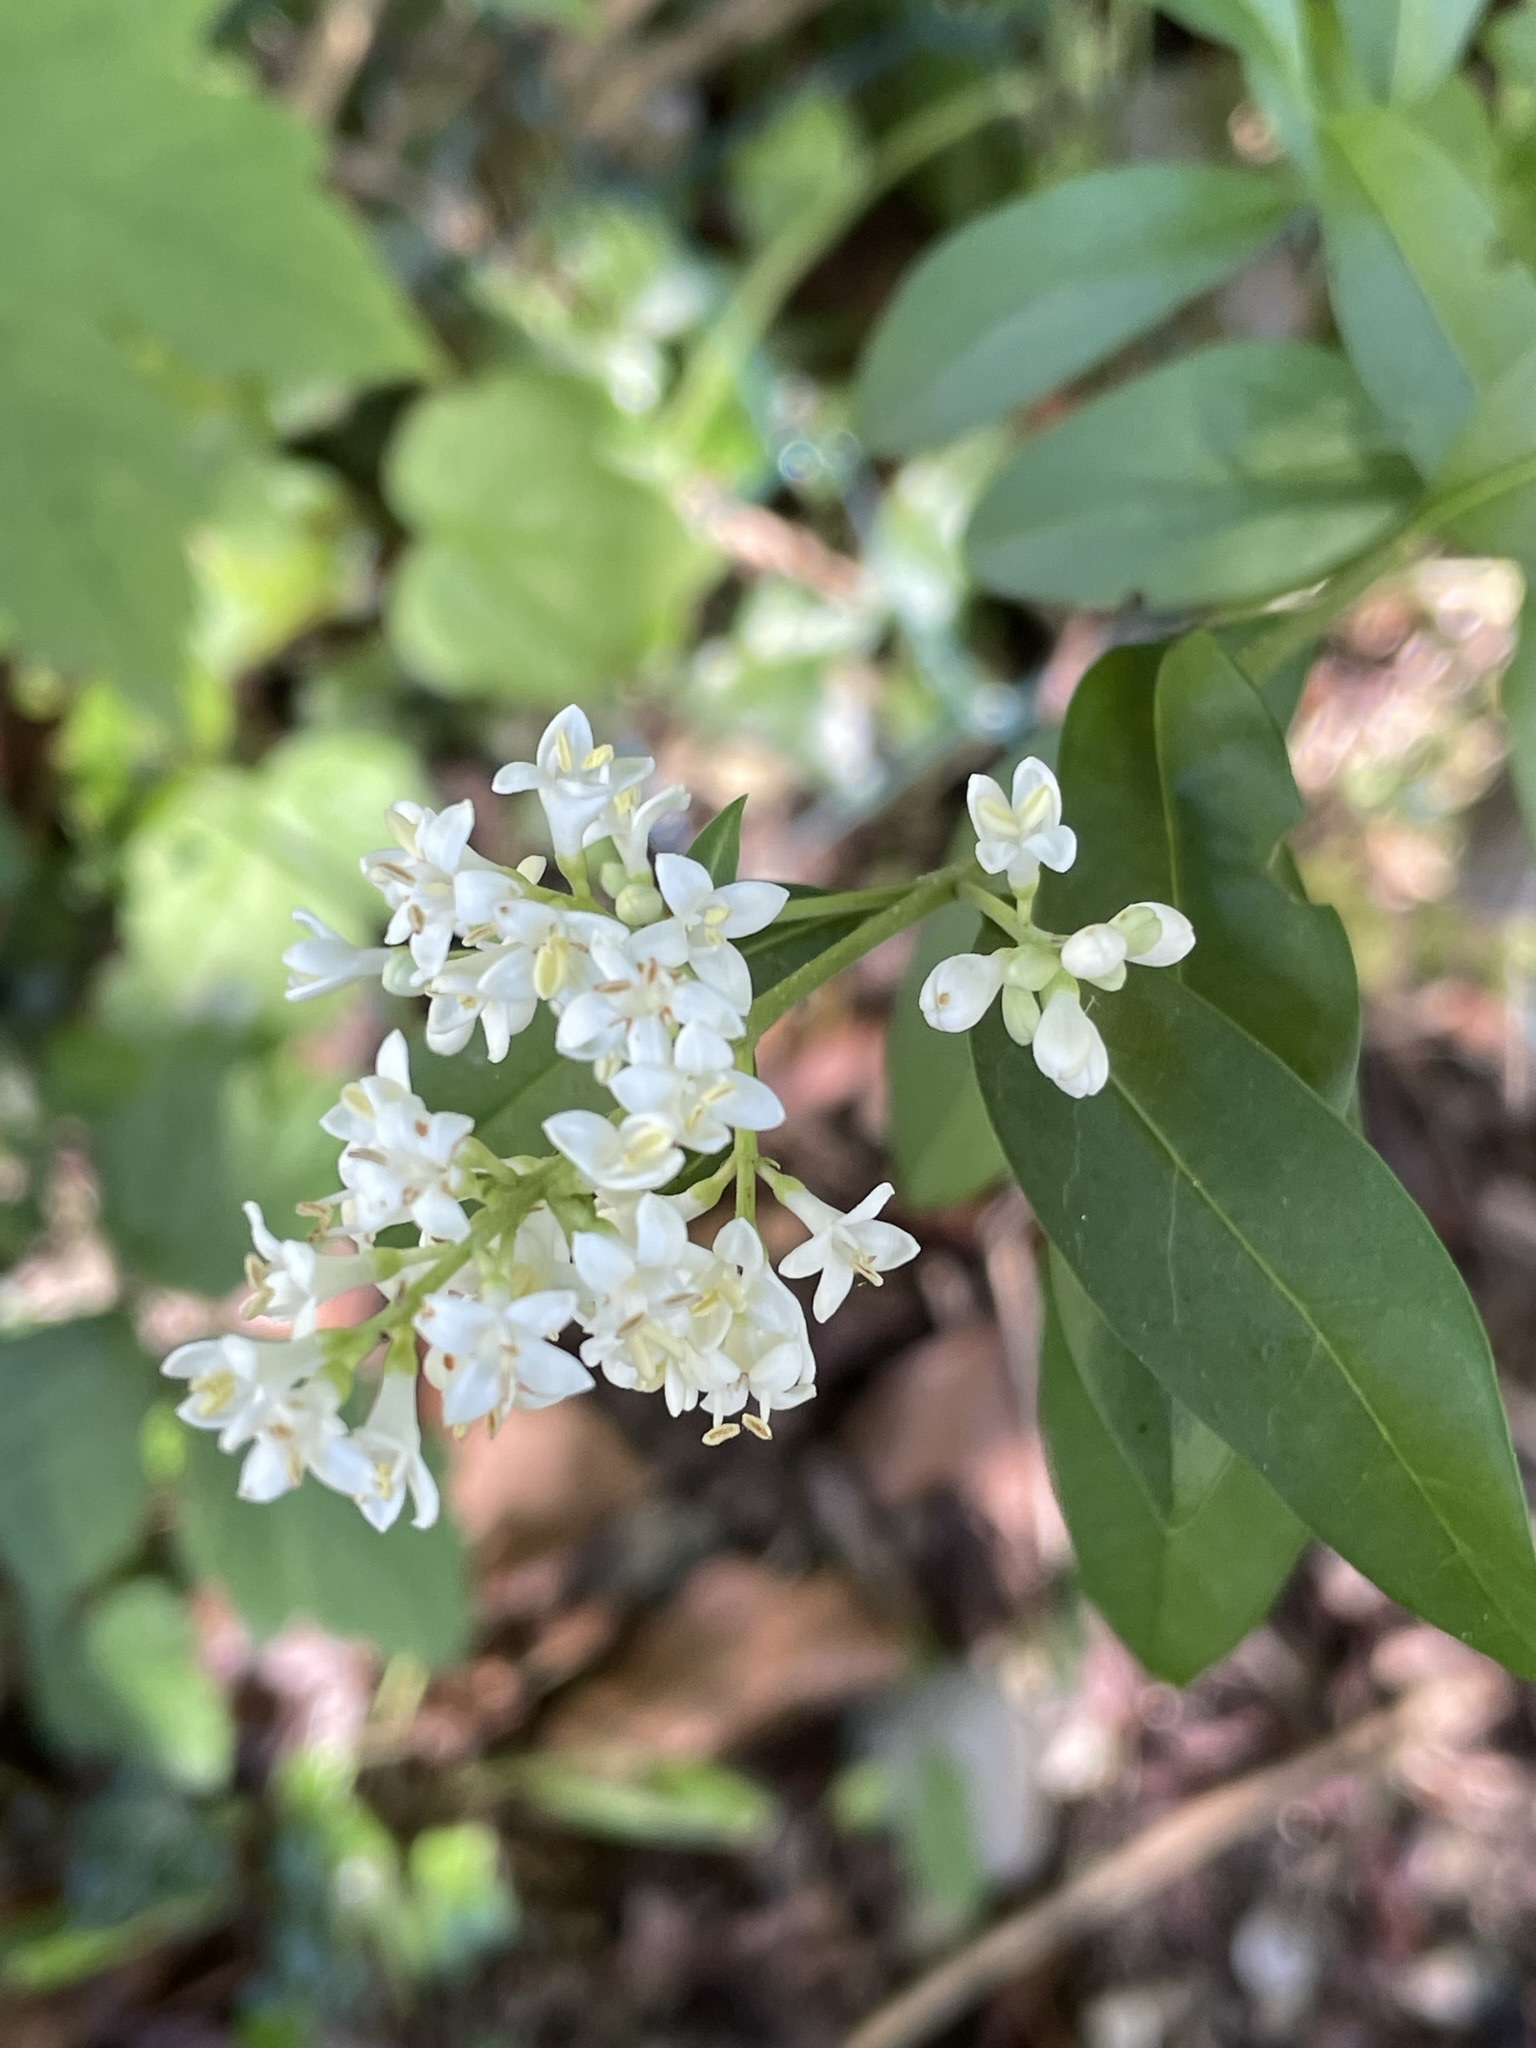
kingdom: Plantae
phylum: Tracheophyta
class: Magnoliopsida
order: Lamiales
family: Oleaceae
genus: Ligustrum
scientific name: Ligustrum vulgare
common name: Wild privet
